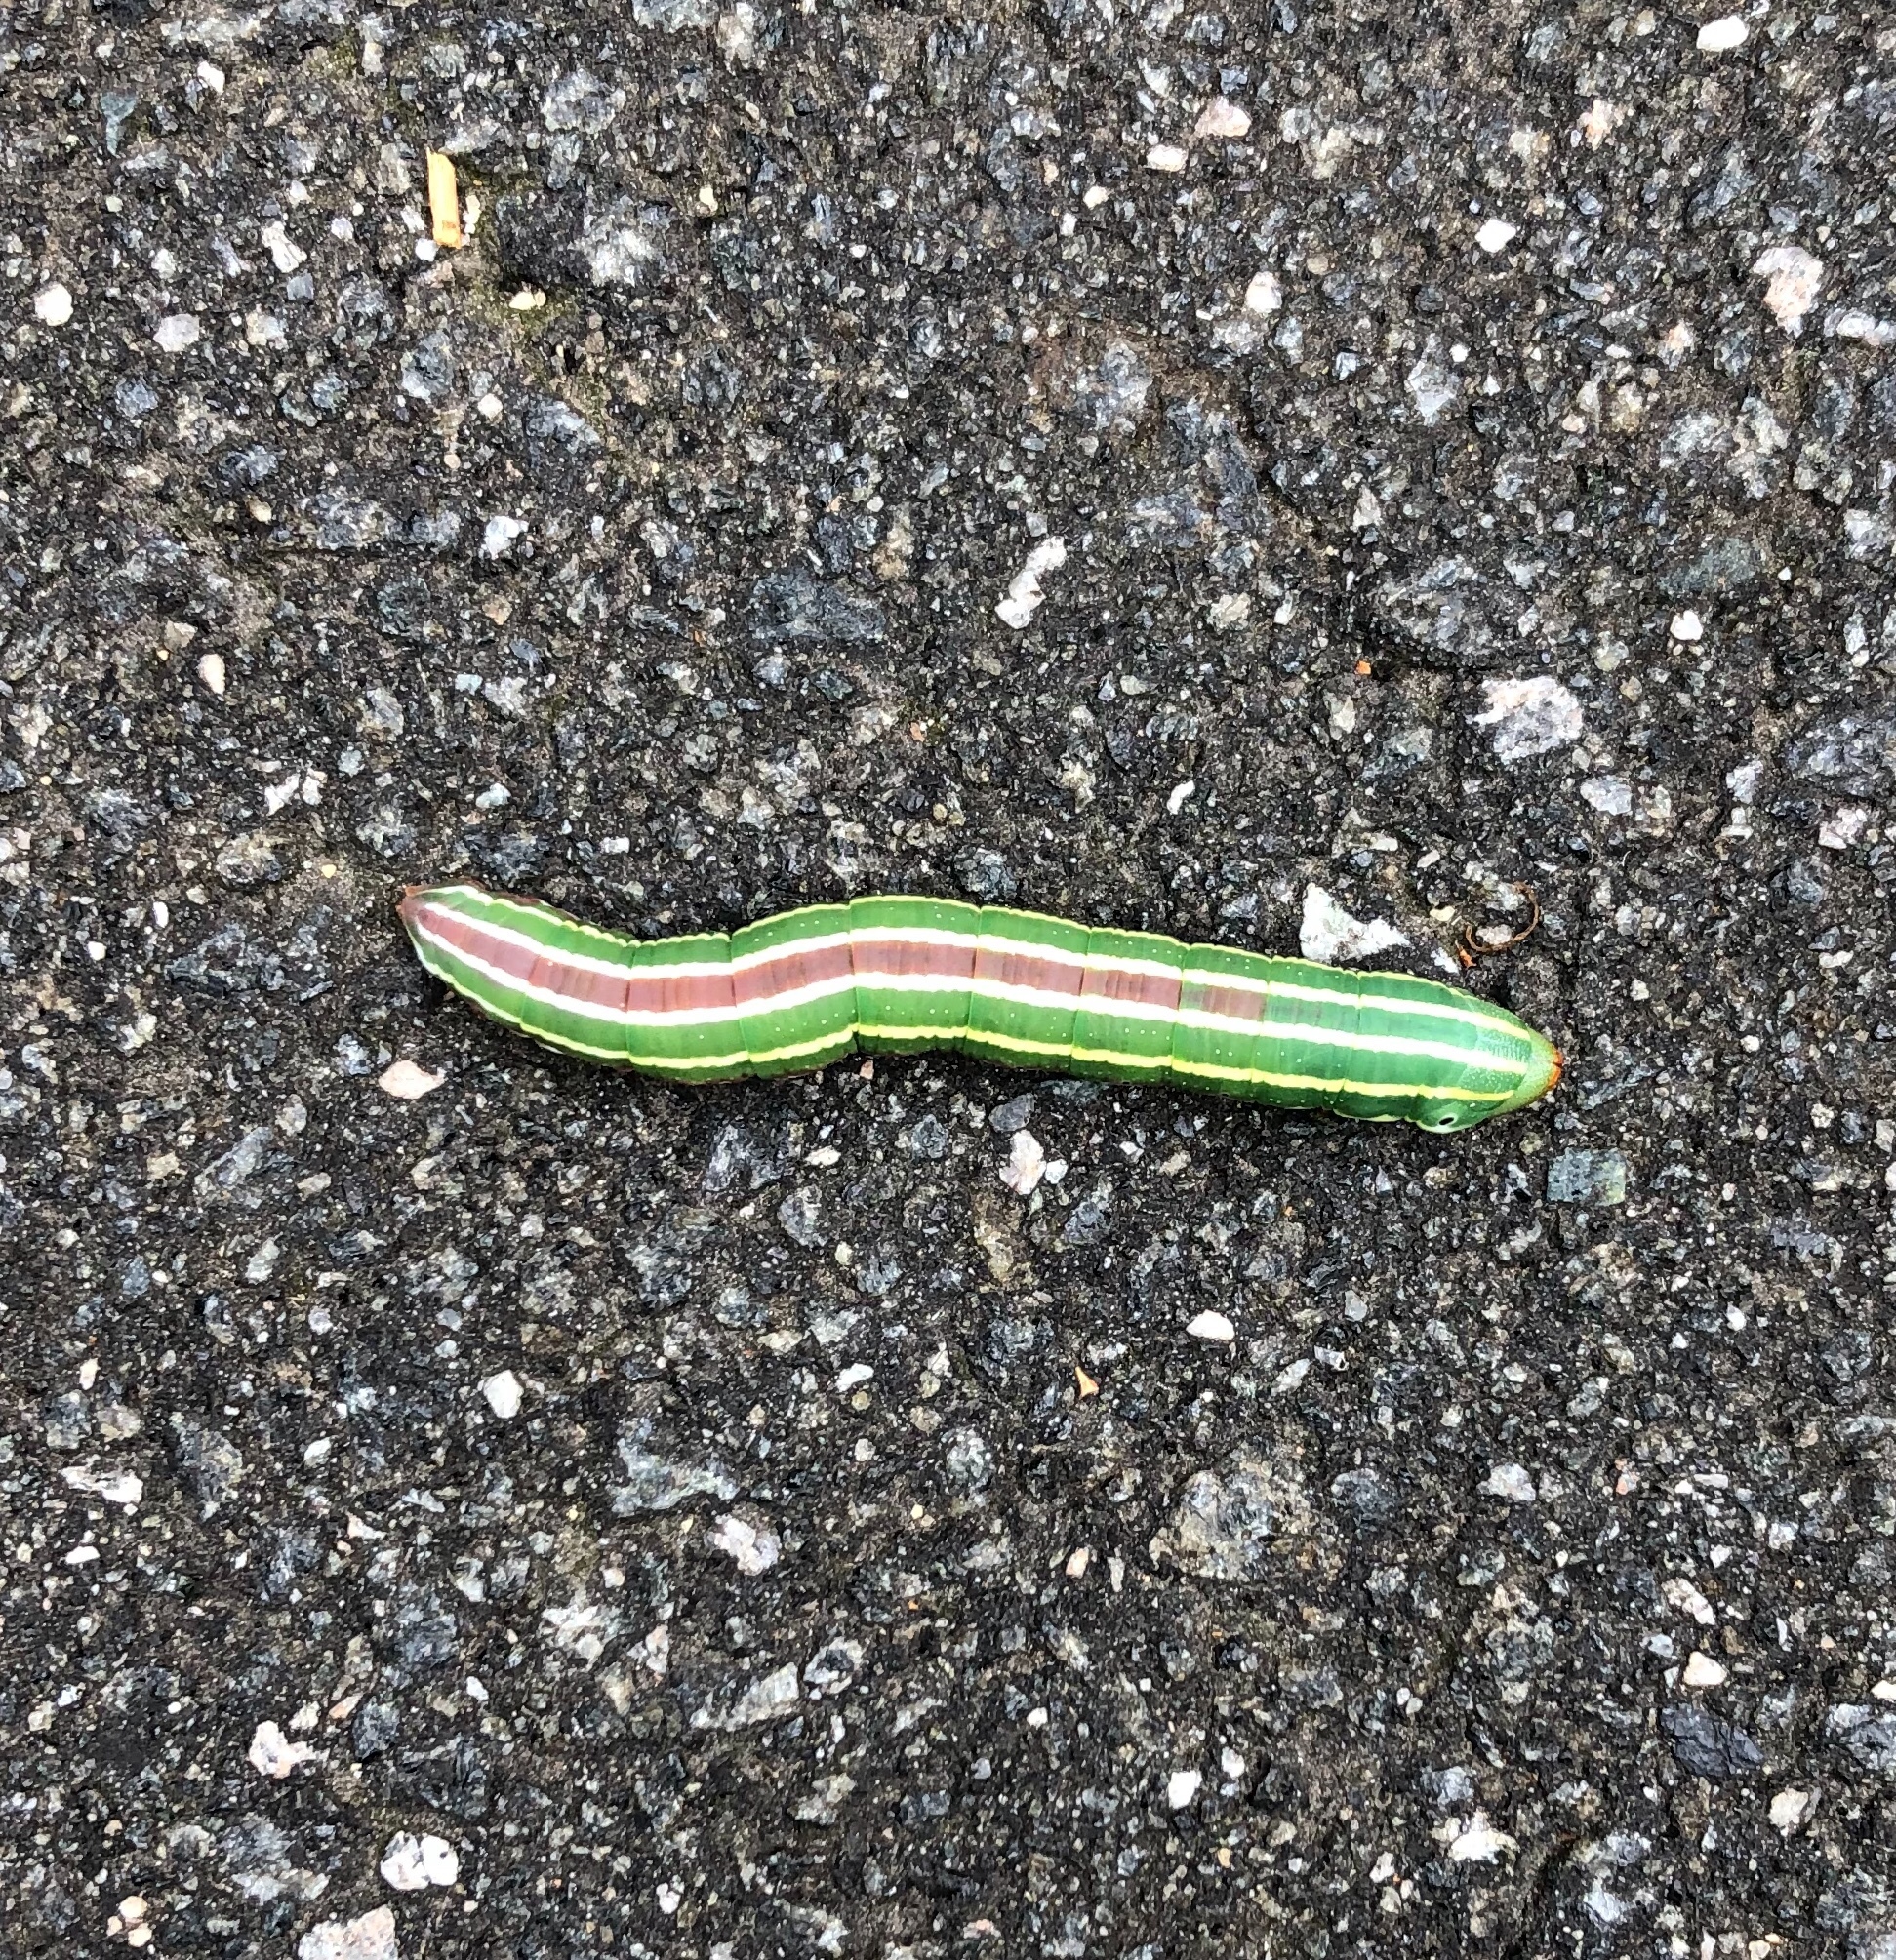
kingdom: Animalia
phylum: Arthropoda
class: Insecta
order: Lepidoptera
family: Sphingidae
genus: Lapara
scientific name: Lapara coniferarum
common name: Southern pine sphinx
